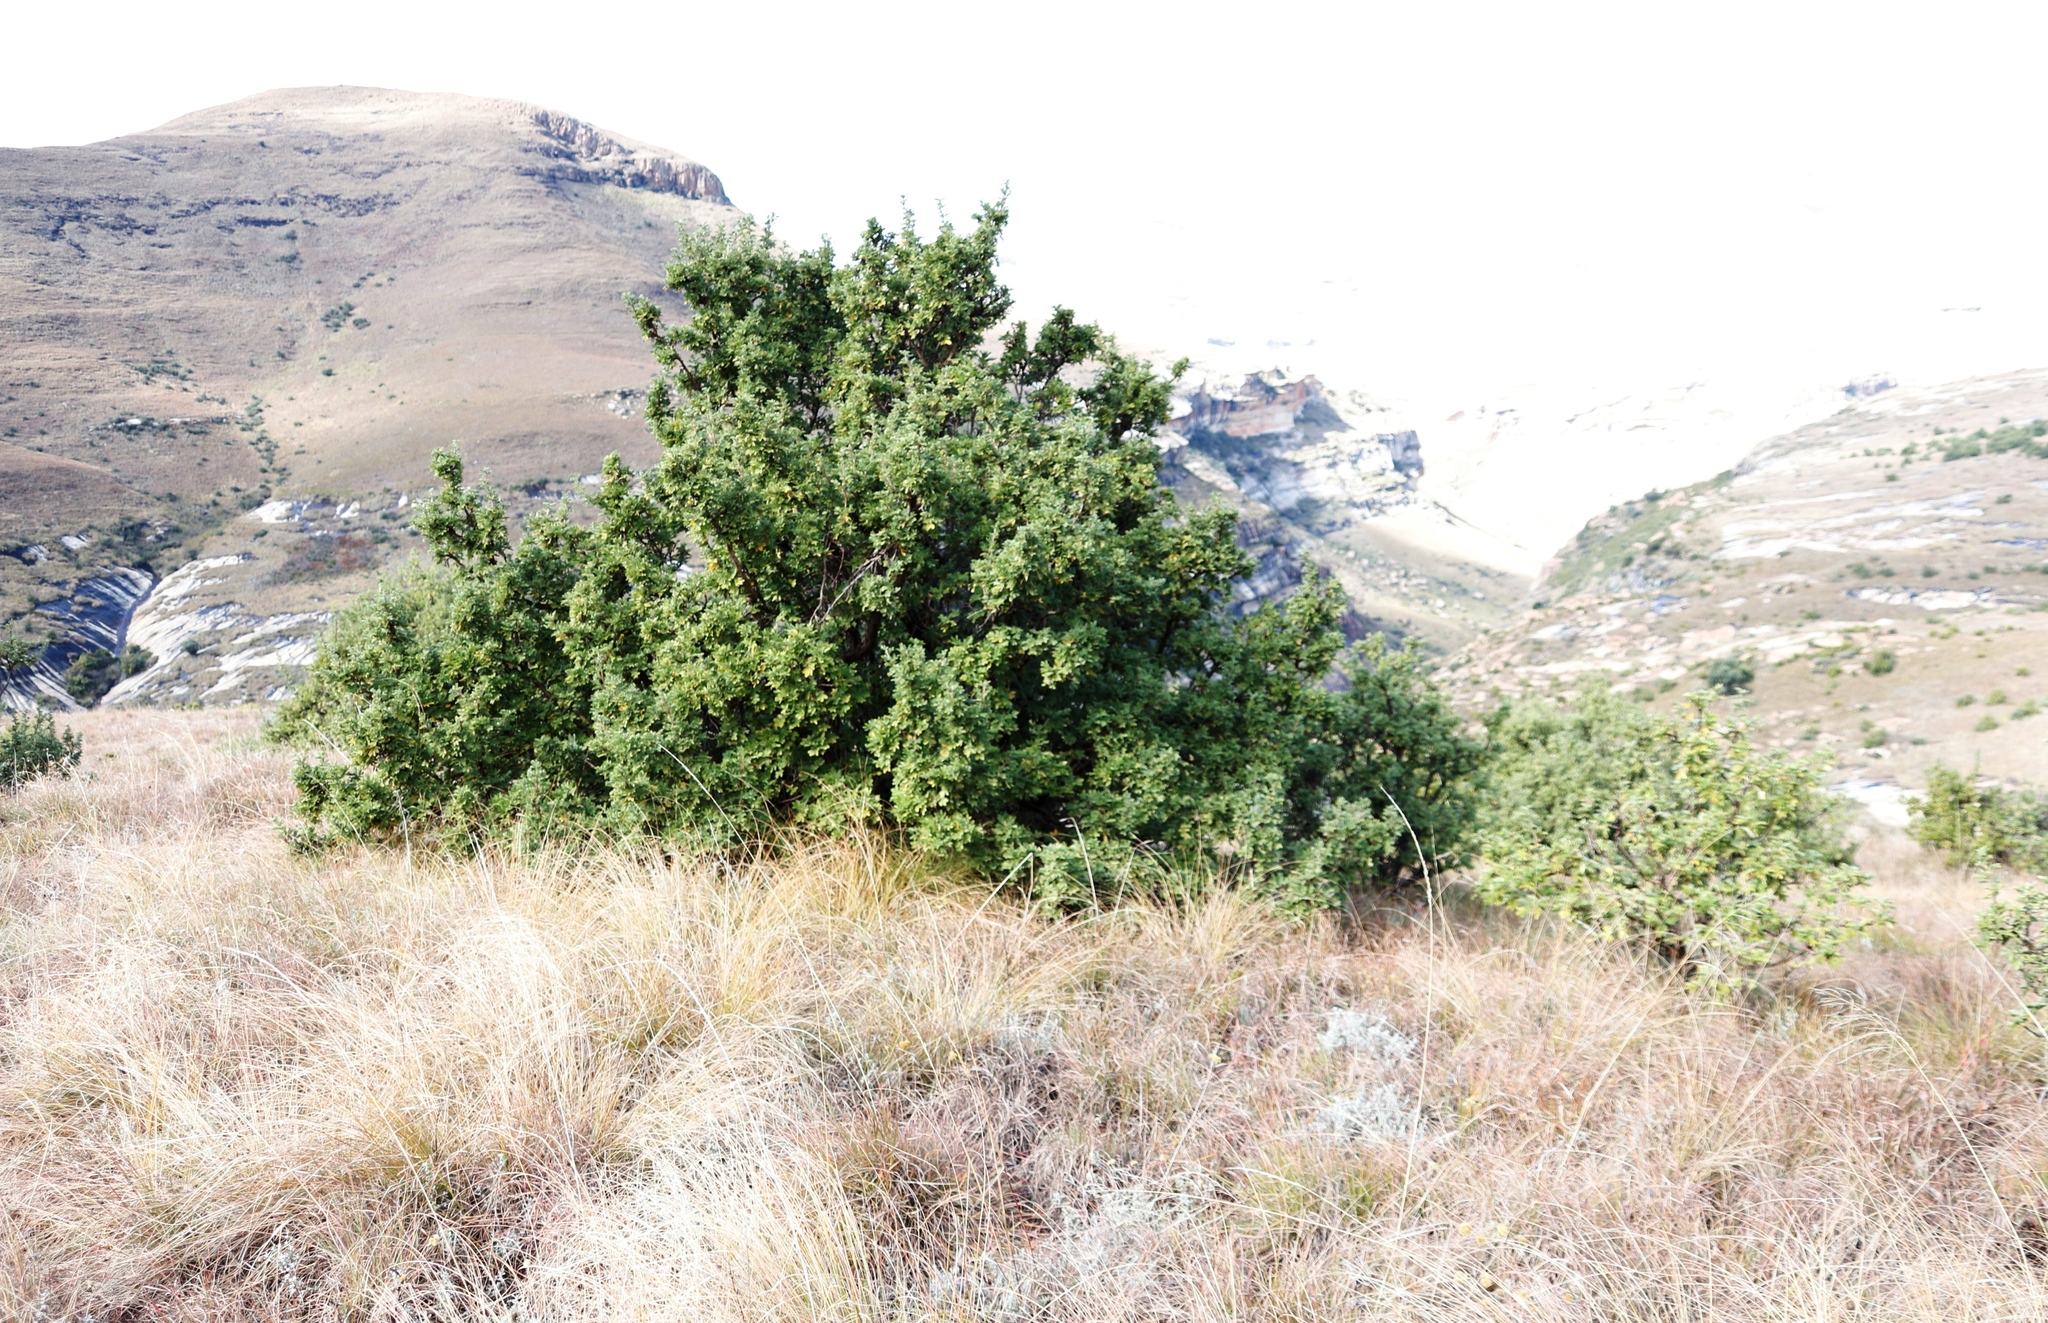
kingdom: Plantae
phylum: Tracheophyta
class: Magnoliopsida
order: Rosales
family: Rosaceae
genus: Leucosidea
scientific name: Leucosidea sericea
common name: Oldwood
